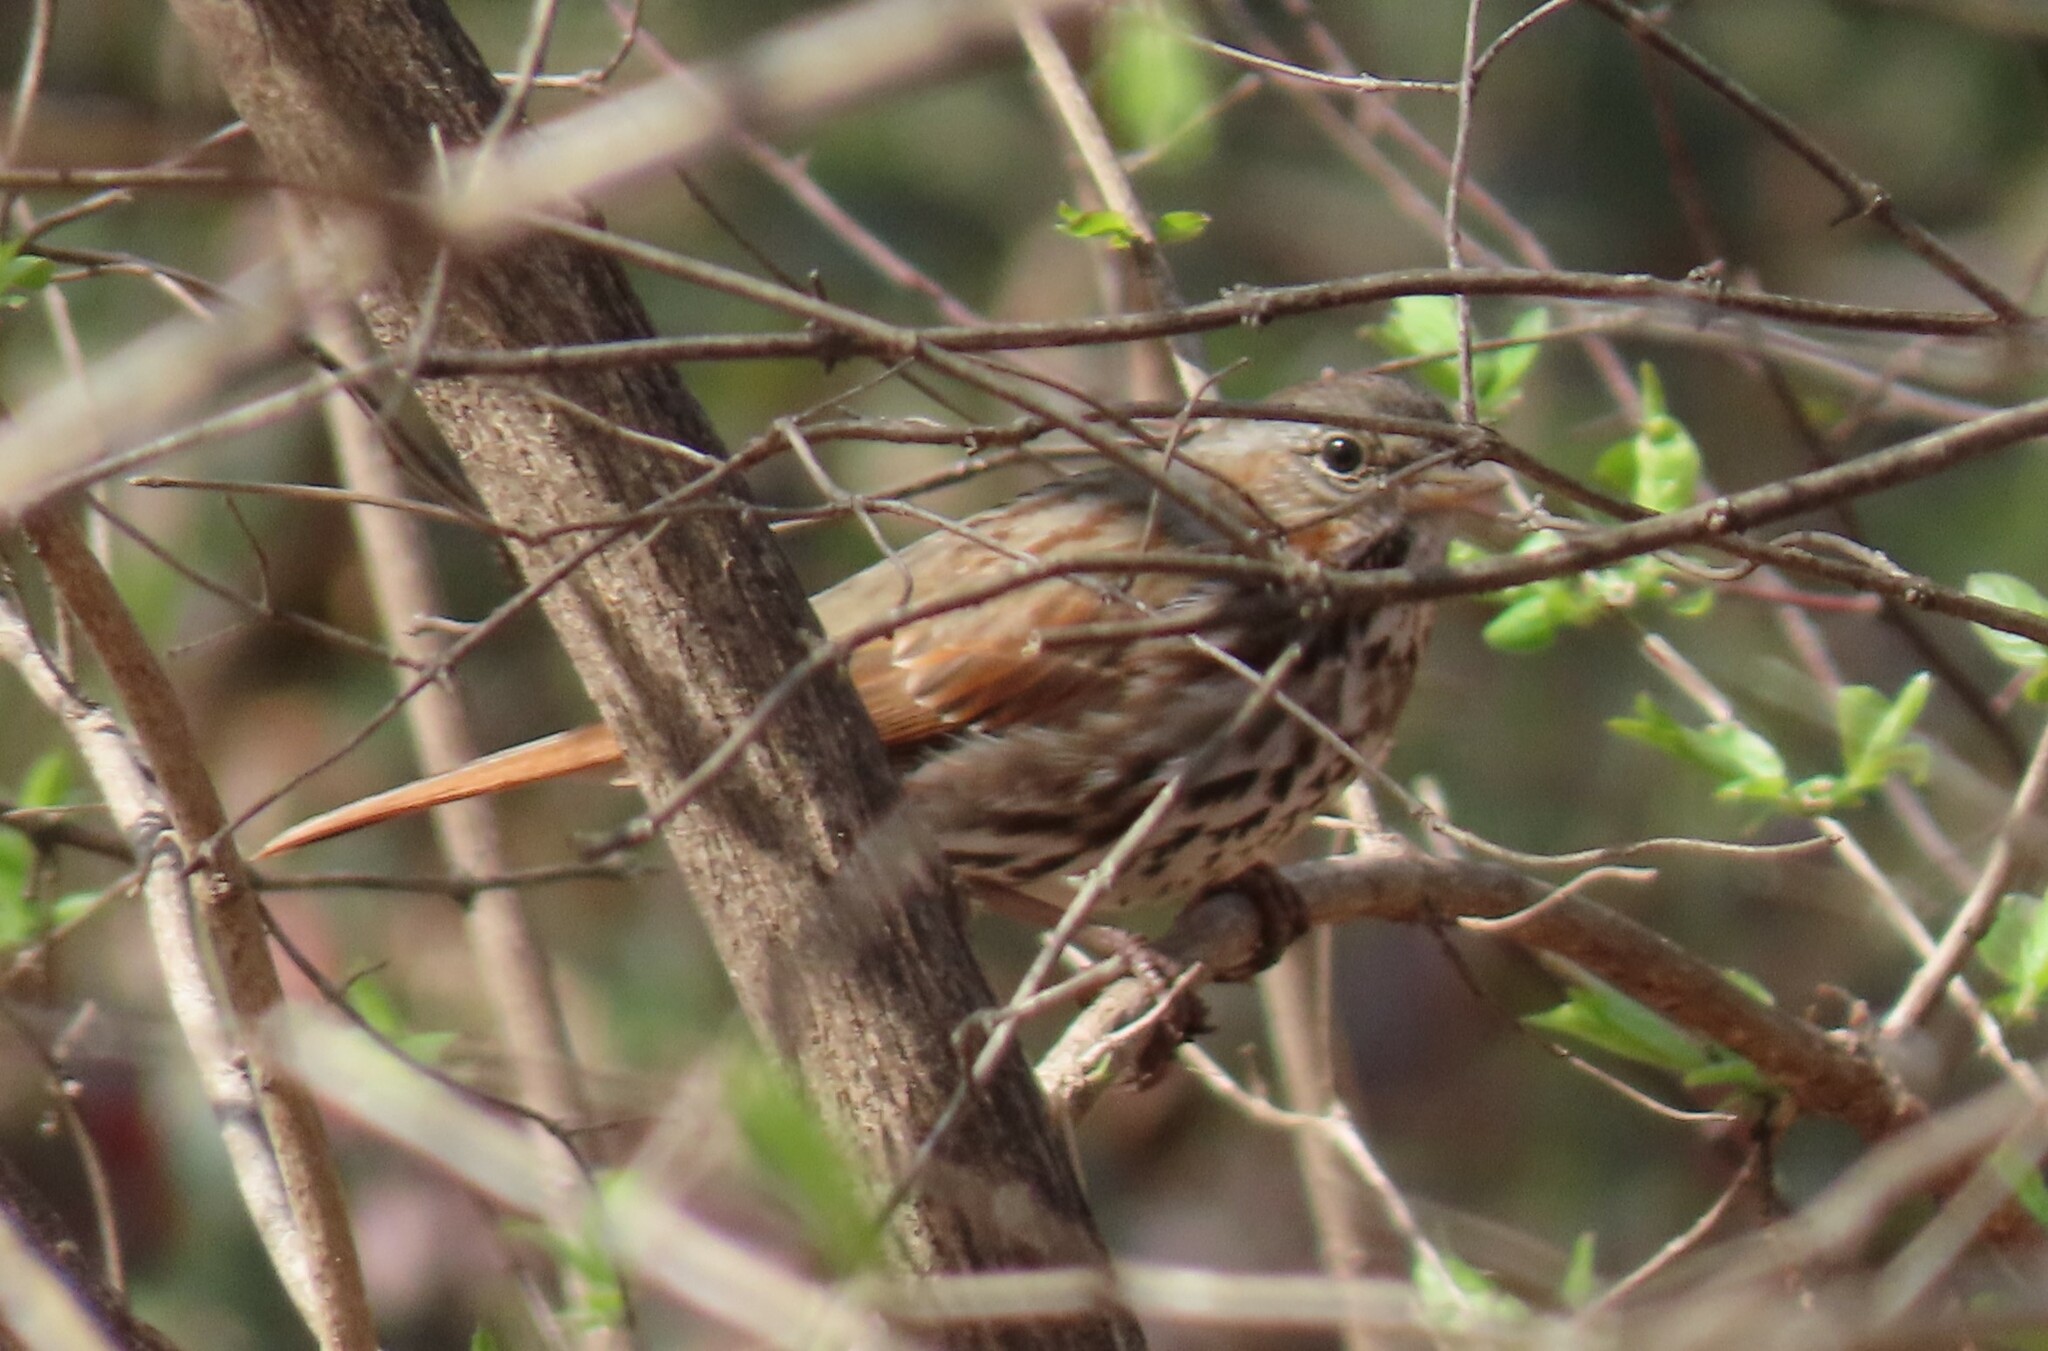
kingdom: Animalia
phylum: Chordata
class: Aves
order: Passeriformes
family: Passerellidae
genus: Passerella
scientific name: Passerella iliaca
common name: Fox sparrow
